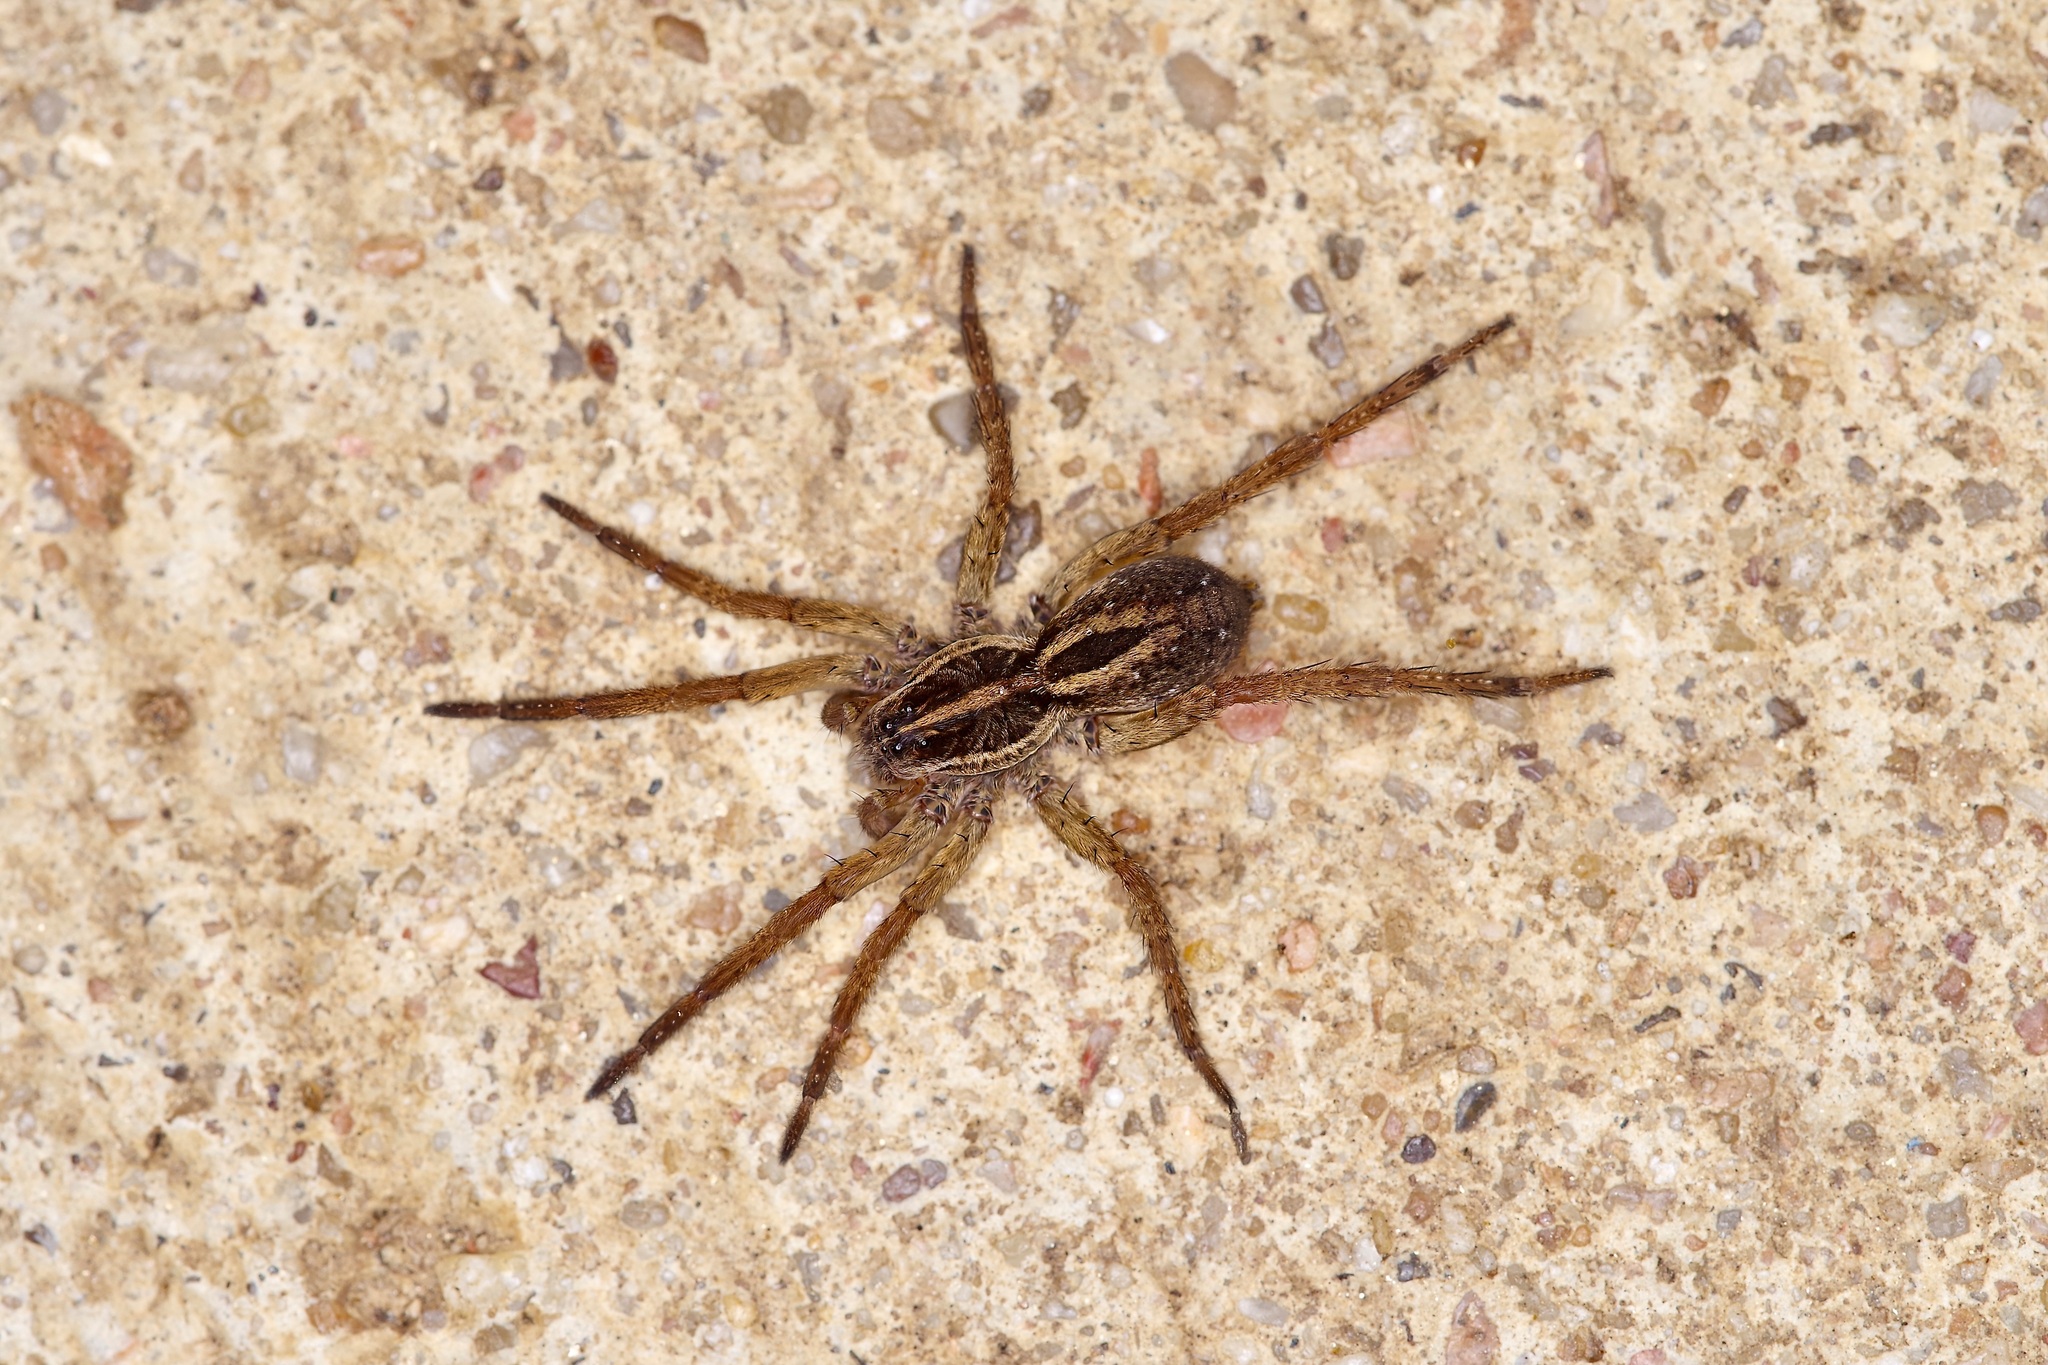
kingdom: Animalia
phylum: Arthropoda
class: Arachnida
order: Araneae
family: Lycosidae
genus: Tigrosa
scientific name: Tigrosa annexa
